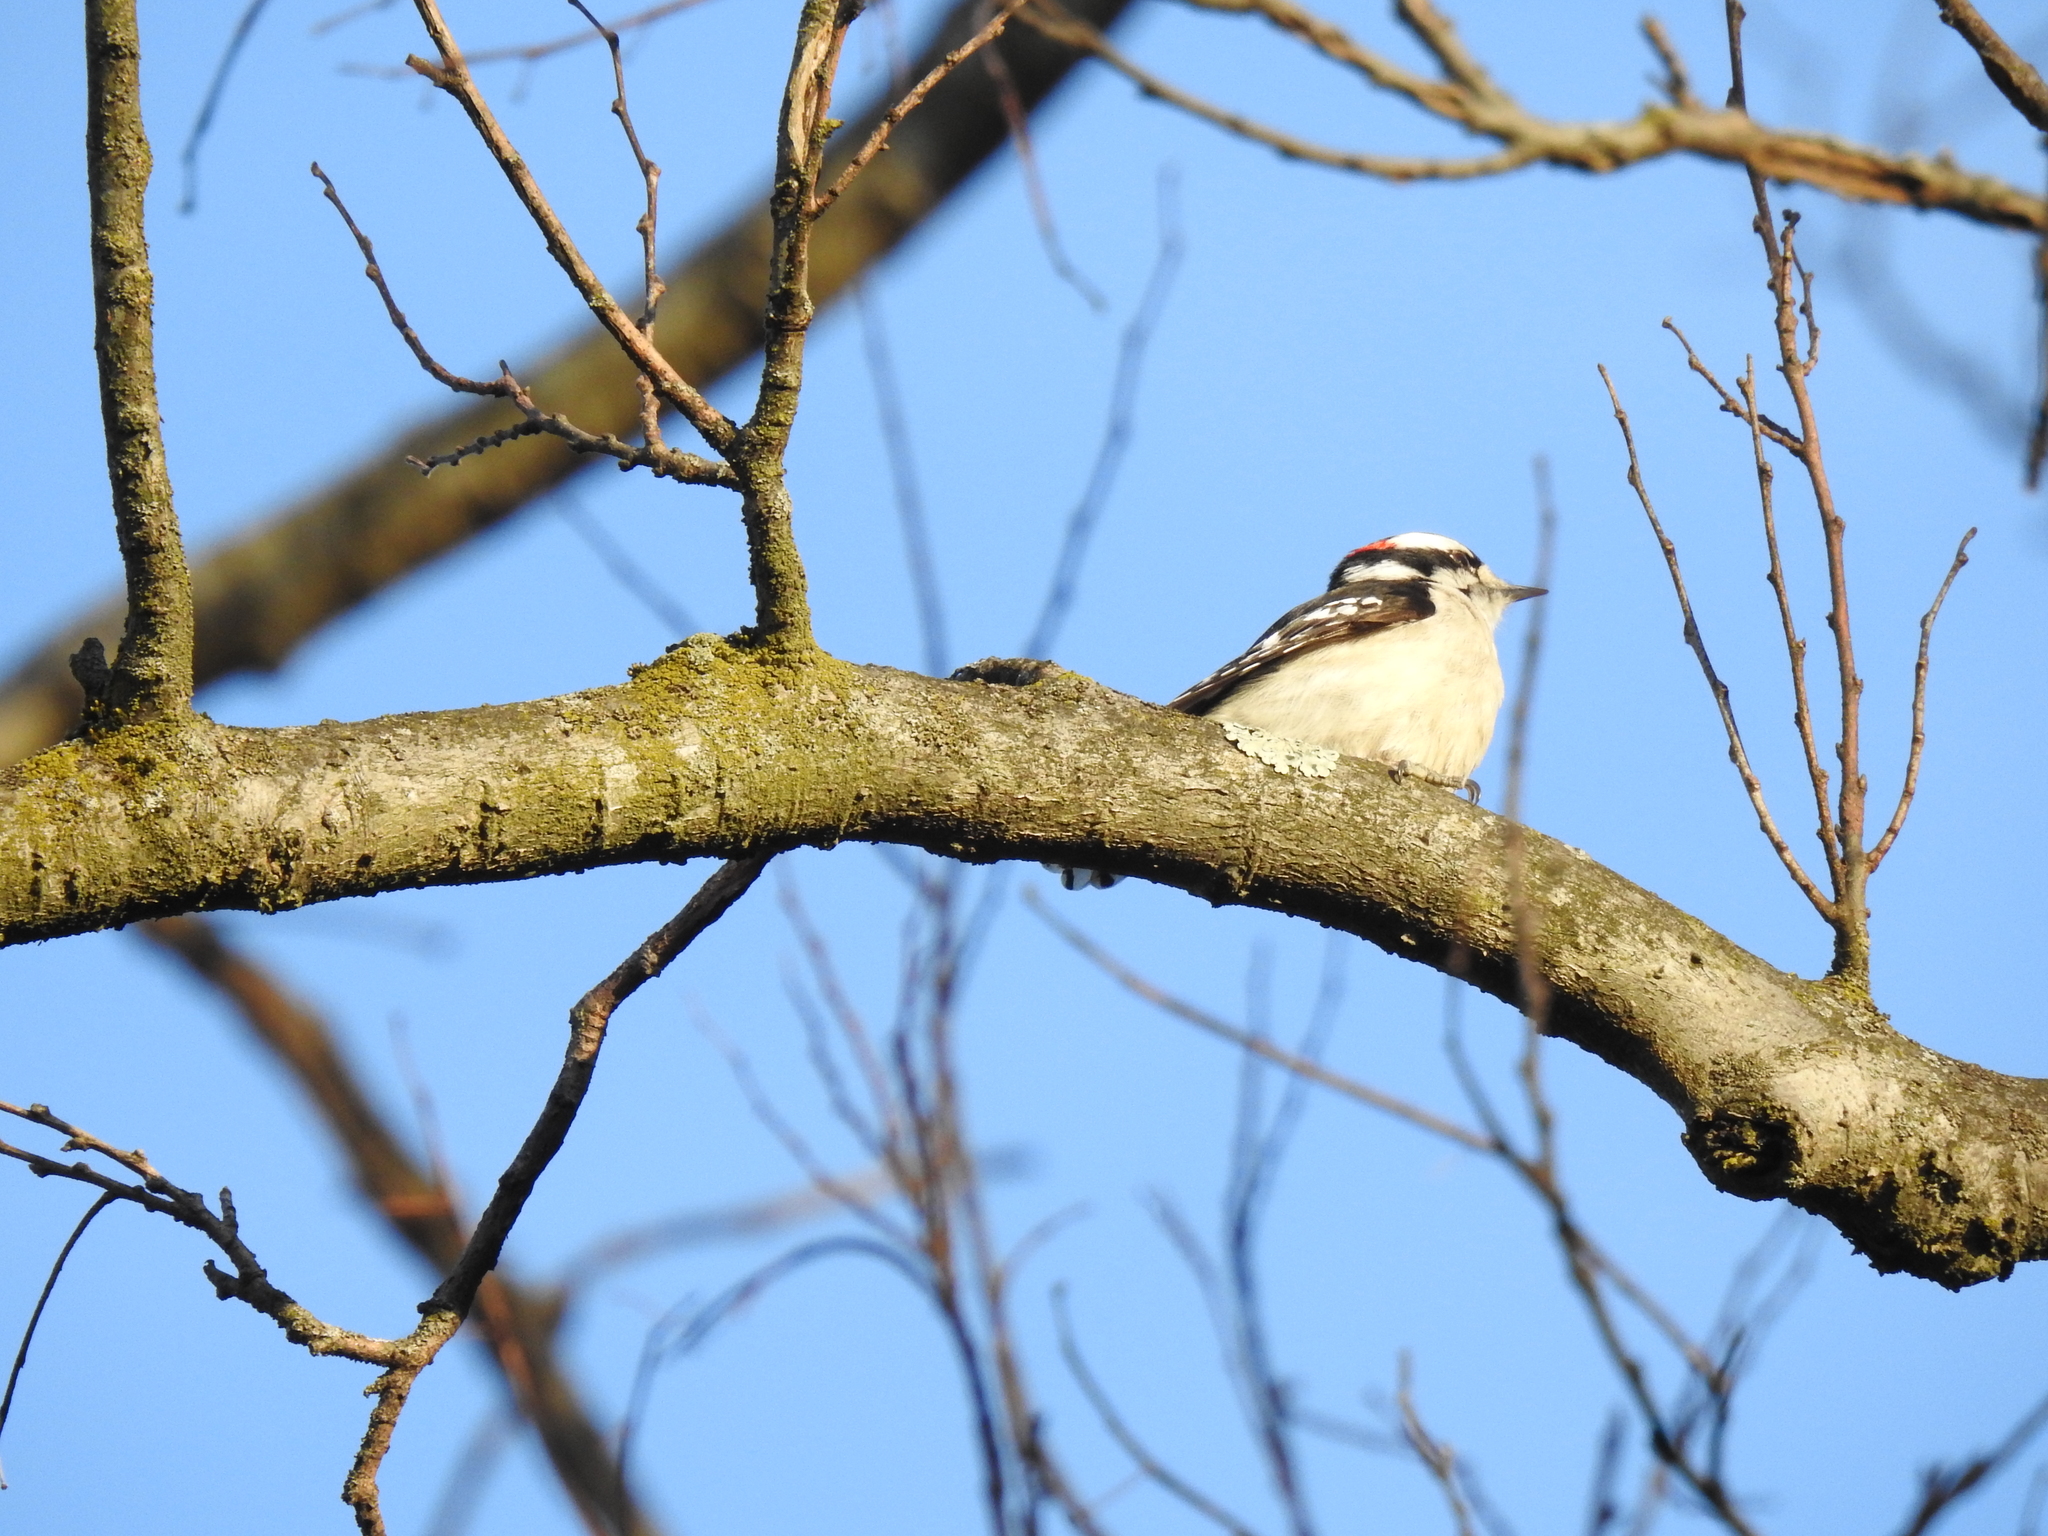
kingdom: Animalia
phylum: Chordata
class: Aves
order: Piciformes
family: Picidae
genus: Dryobates
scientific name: Dryobates pubescens
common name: Downy woodpecker
